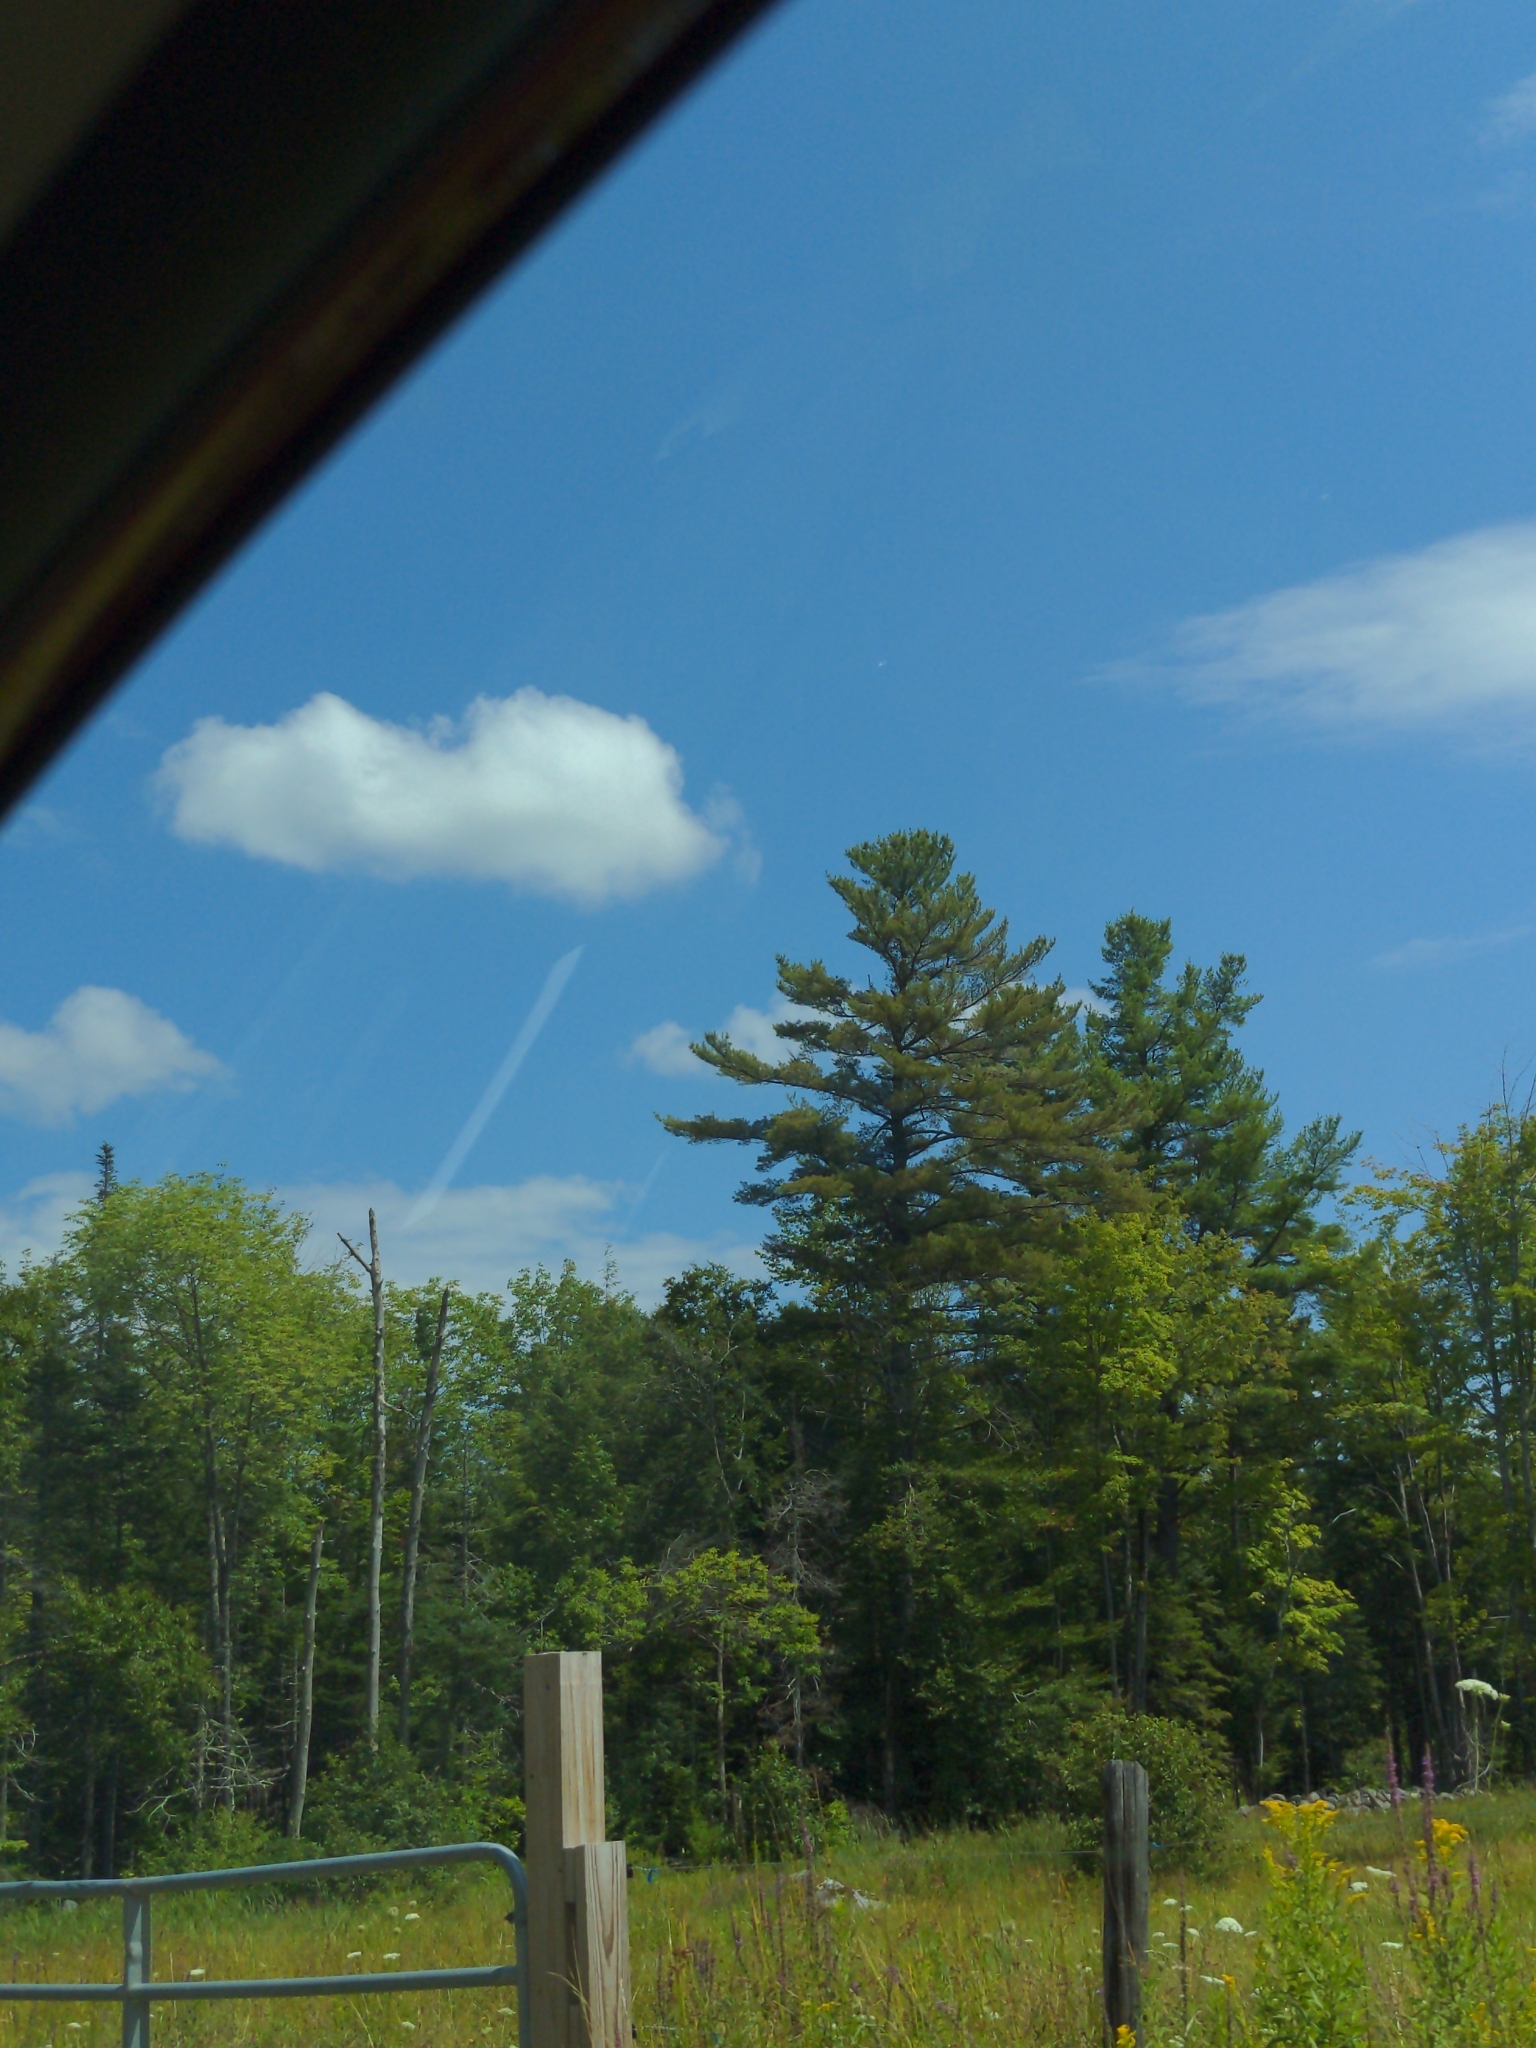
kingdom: Plantae
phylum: Tracheophyta
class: Pinopsida
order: Pinales
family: Pinaceae
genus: Pinus
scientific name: Pinus strobus
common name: Weymouth pine
